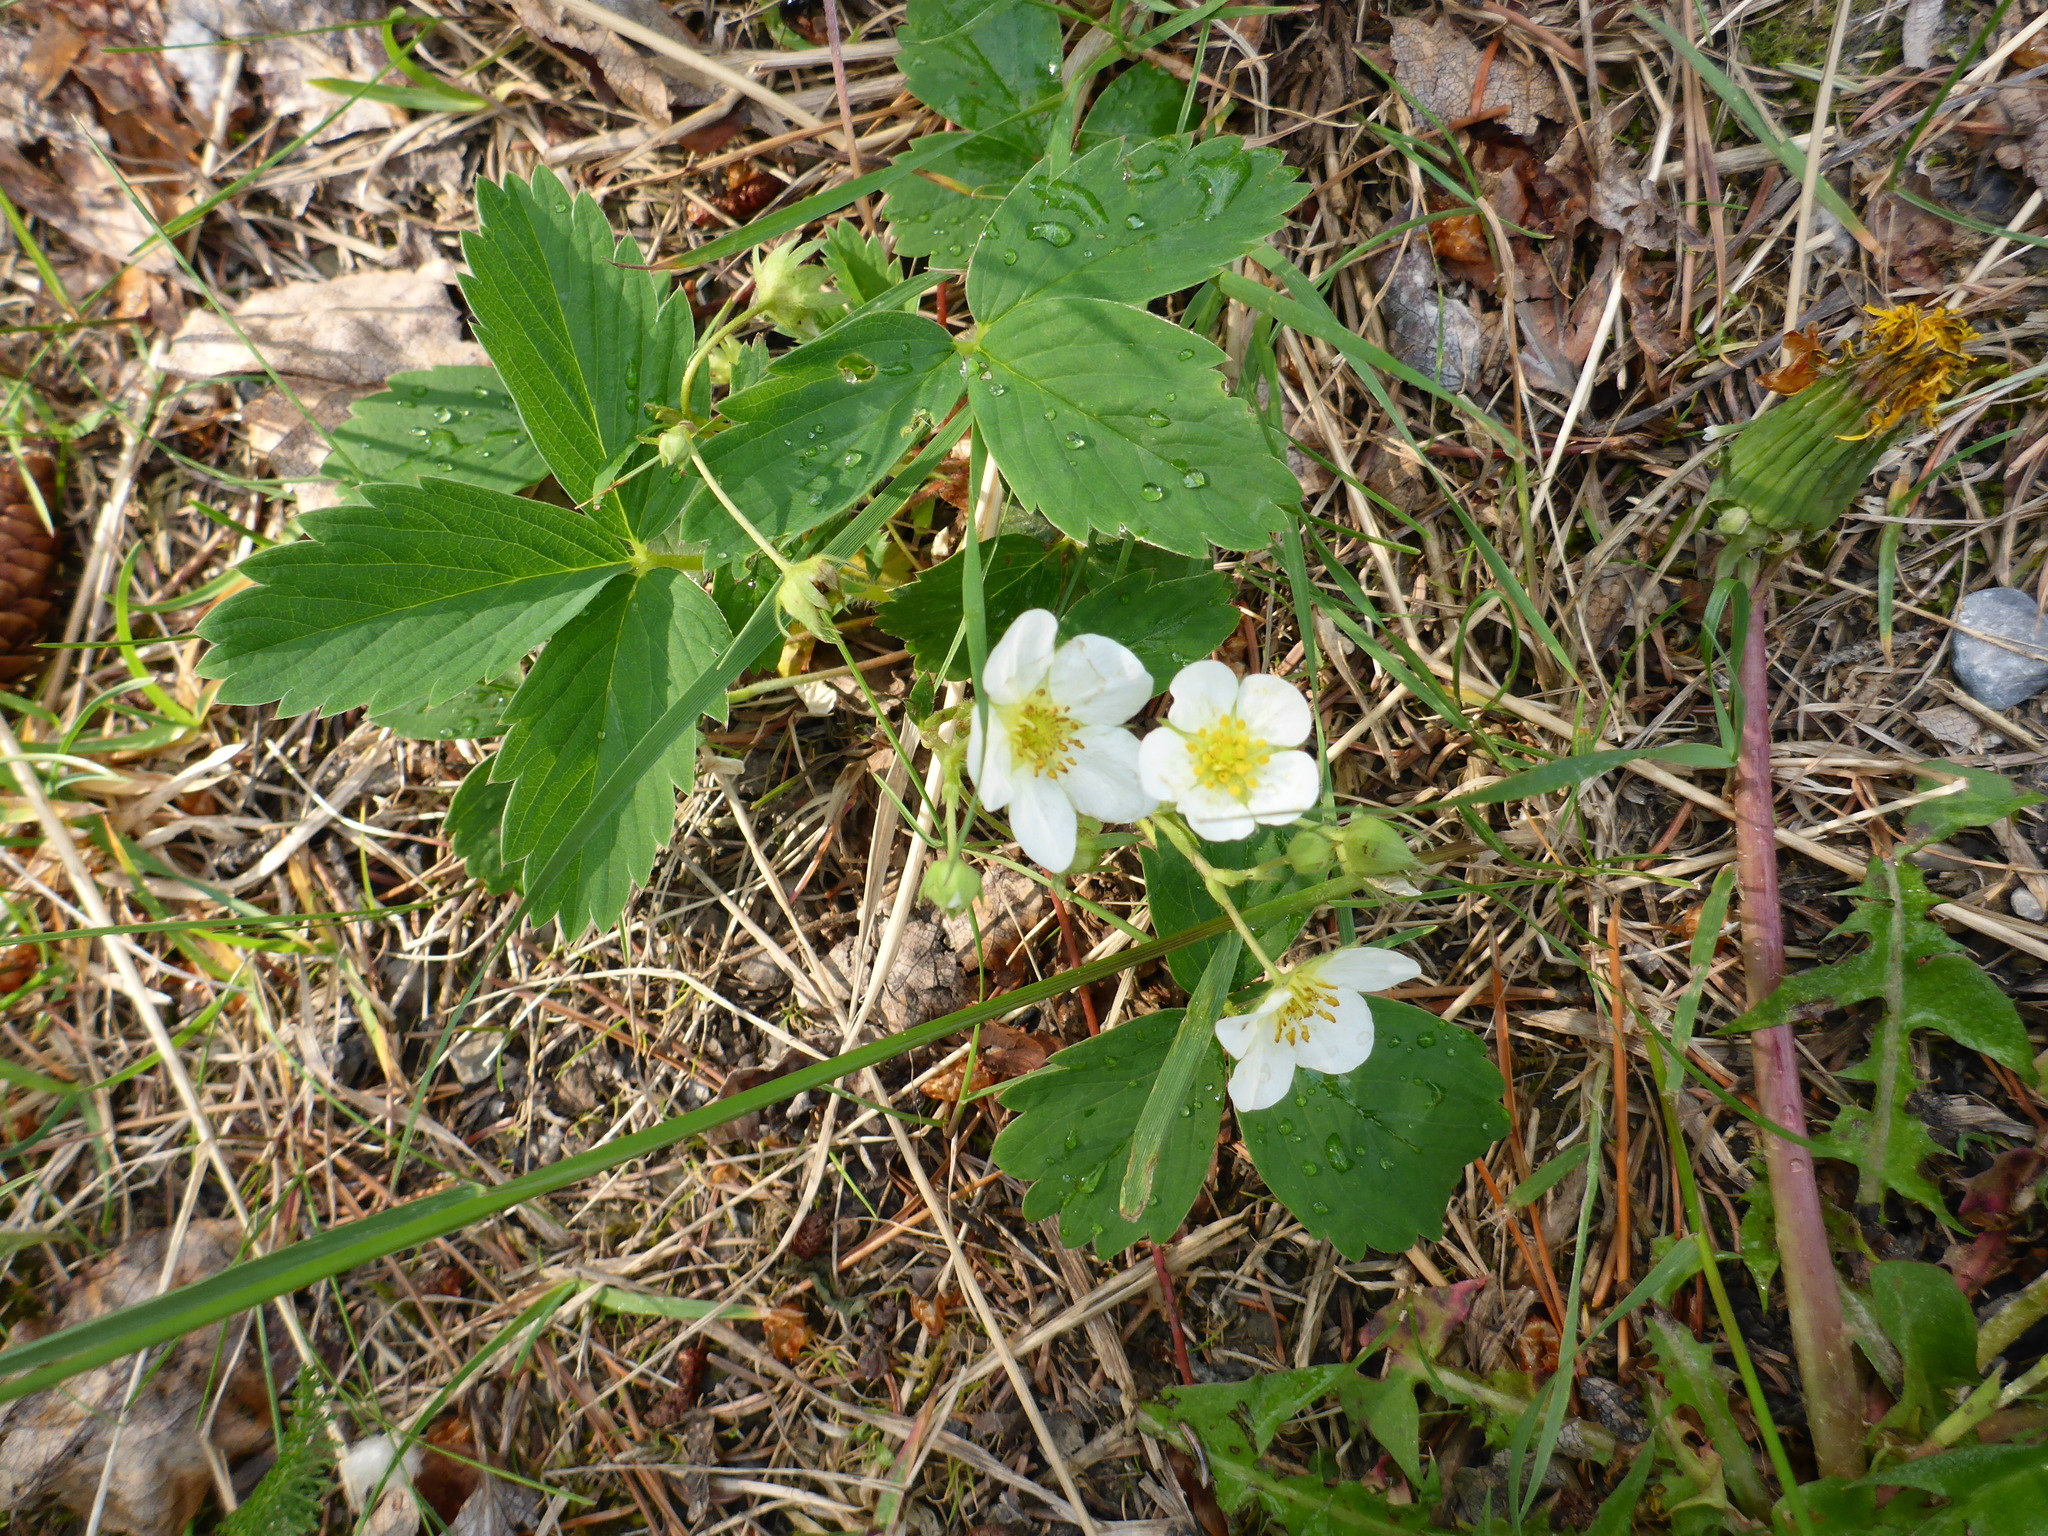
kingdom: Plantae
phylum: Tracheophyta
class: Magnoliopsida
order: Rosales
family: Rosaceae
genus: Fragaria
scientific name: Fragaria virginiana
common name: Thickleaved wild strawberry
